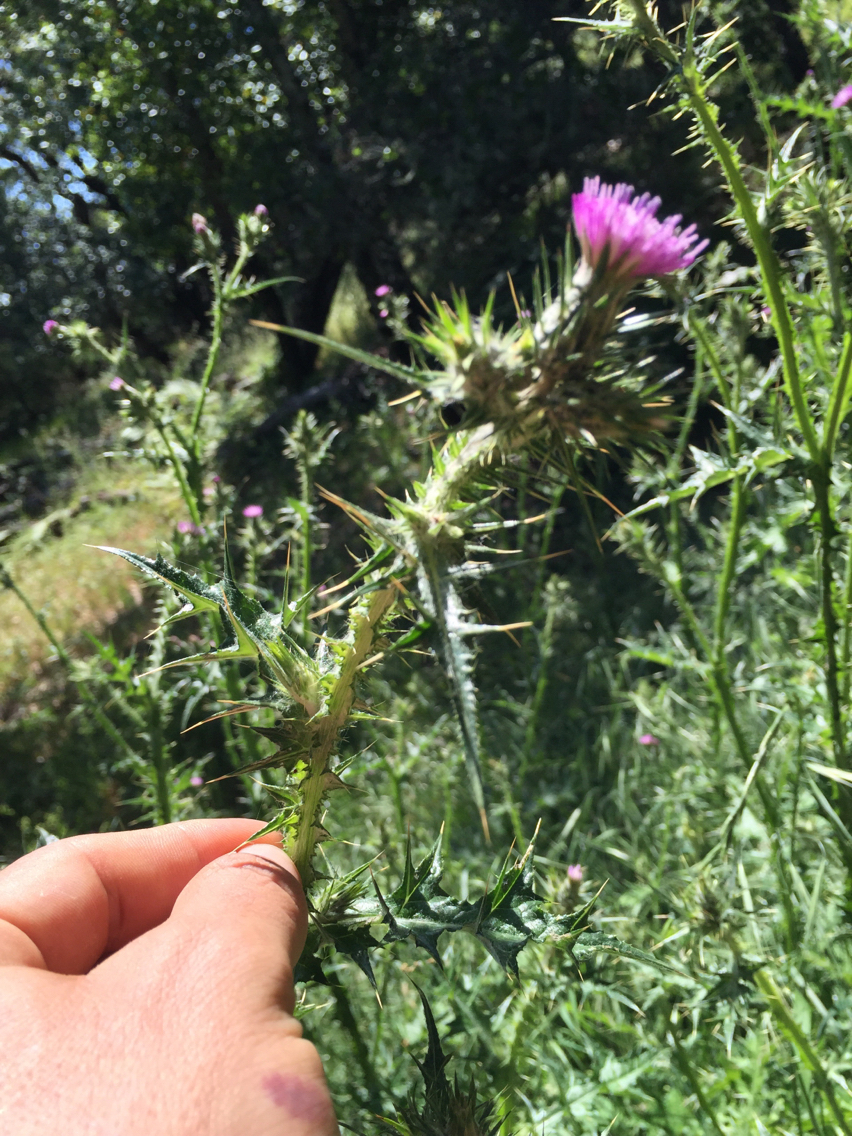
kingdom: Plantae
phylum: Tracheophyta
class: Magnoliopsida
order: Asterales
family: Asteraceae
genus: Carduus
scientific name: Carduus pycnocephalus
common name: Plymouth thistle
